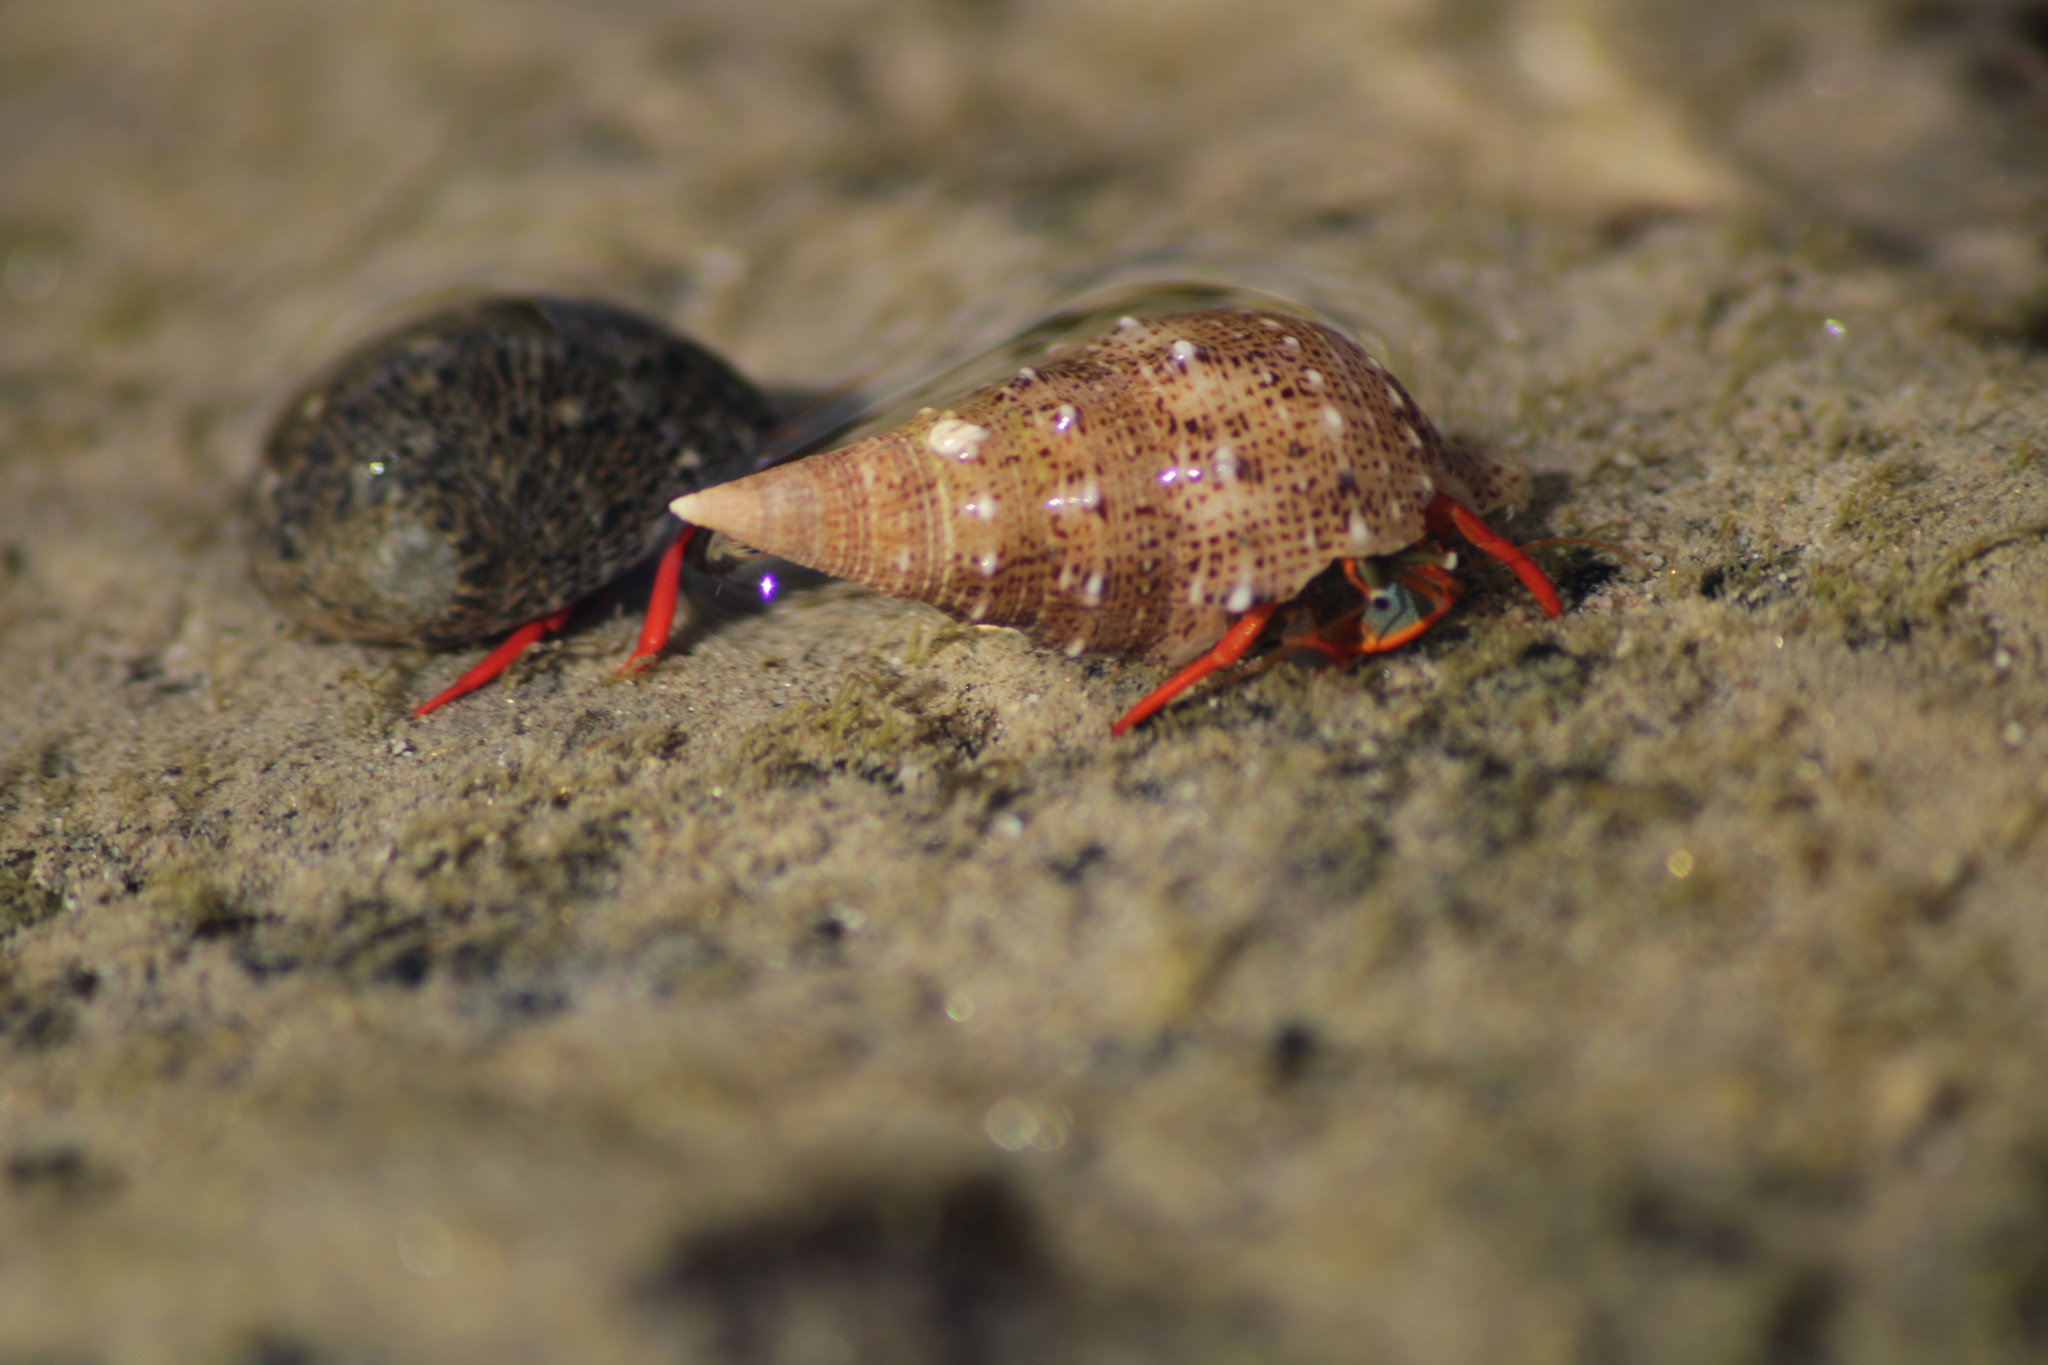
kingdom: Animalia
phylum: Arthropoda
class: Malacostraca
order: Decapoda
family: Diogenidae
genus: Calcinus
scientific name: Calcinus californiensis
